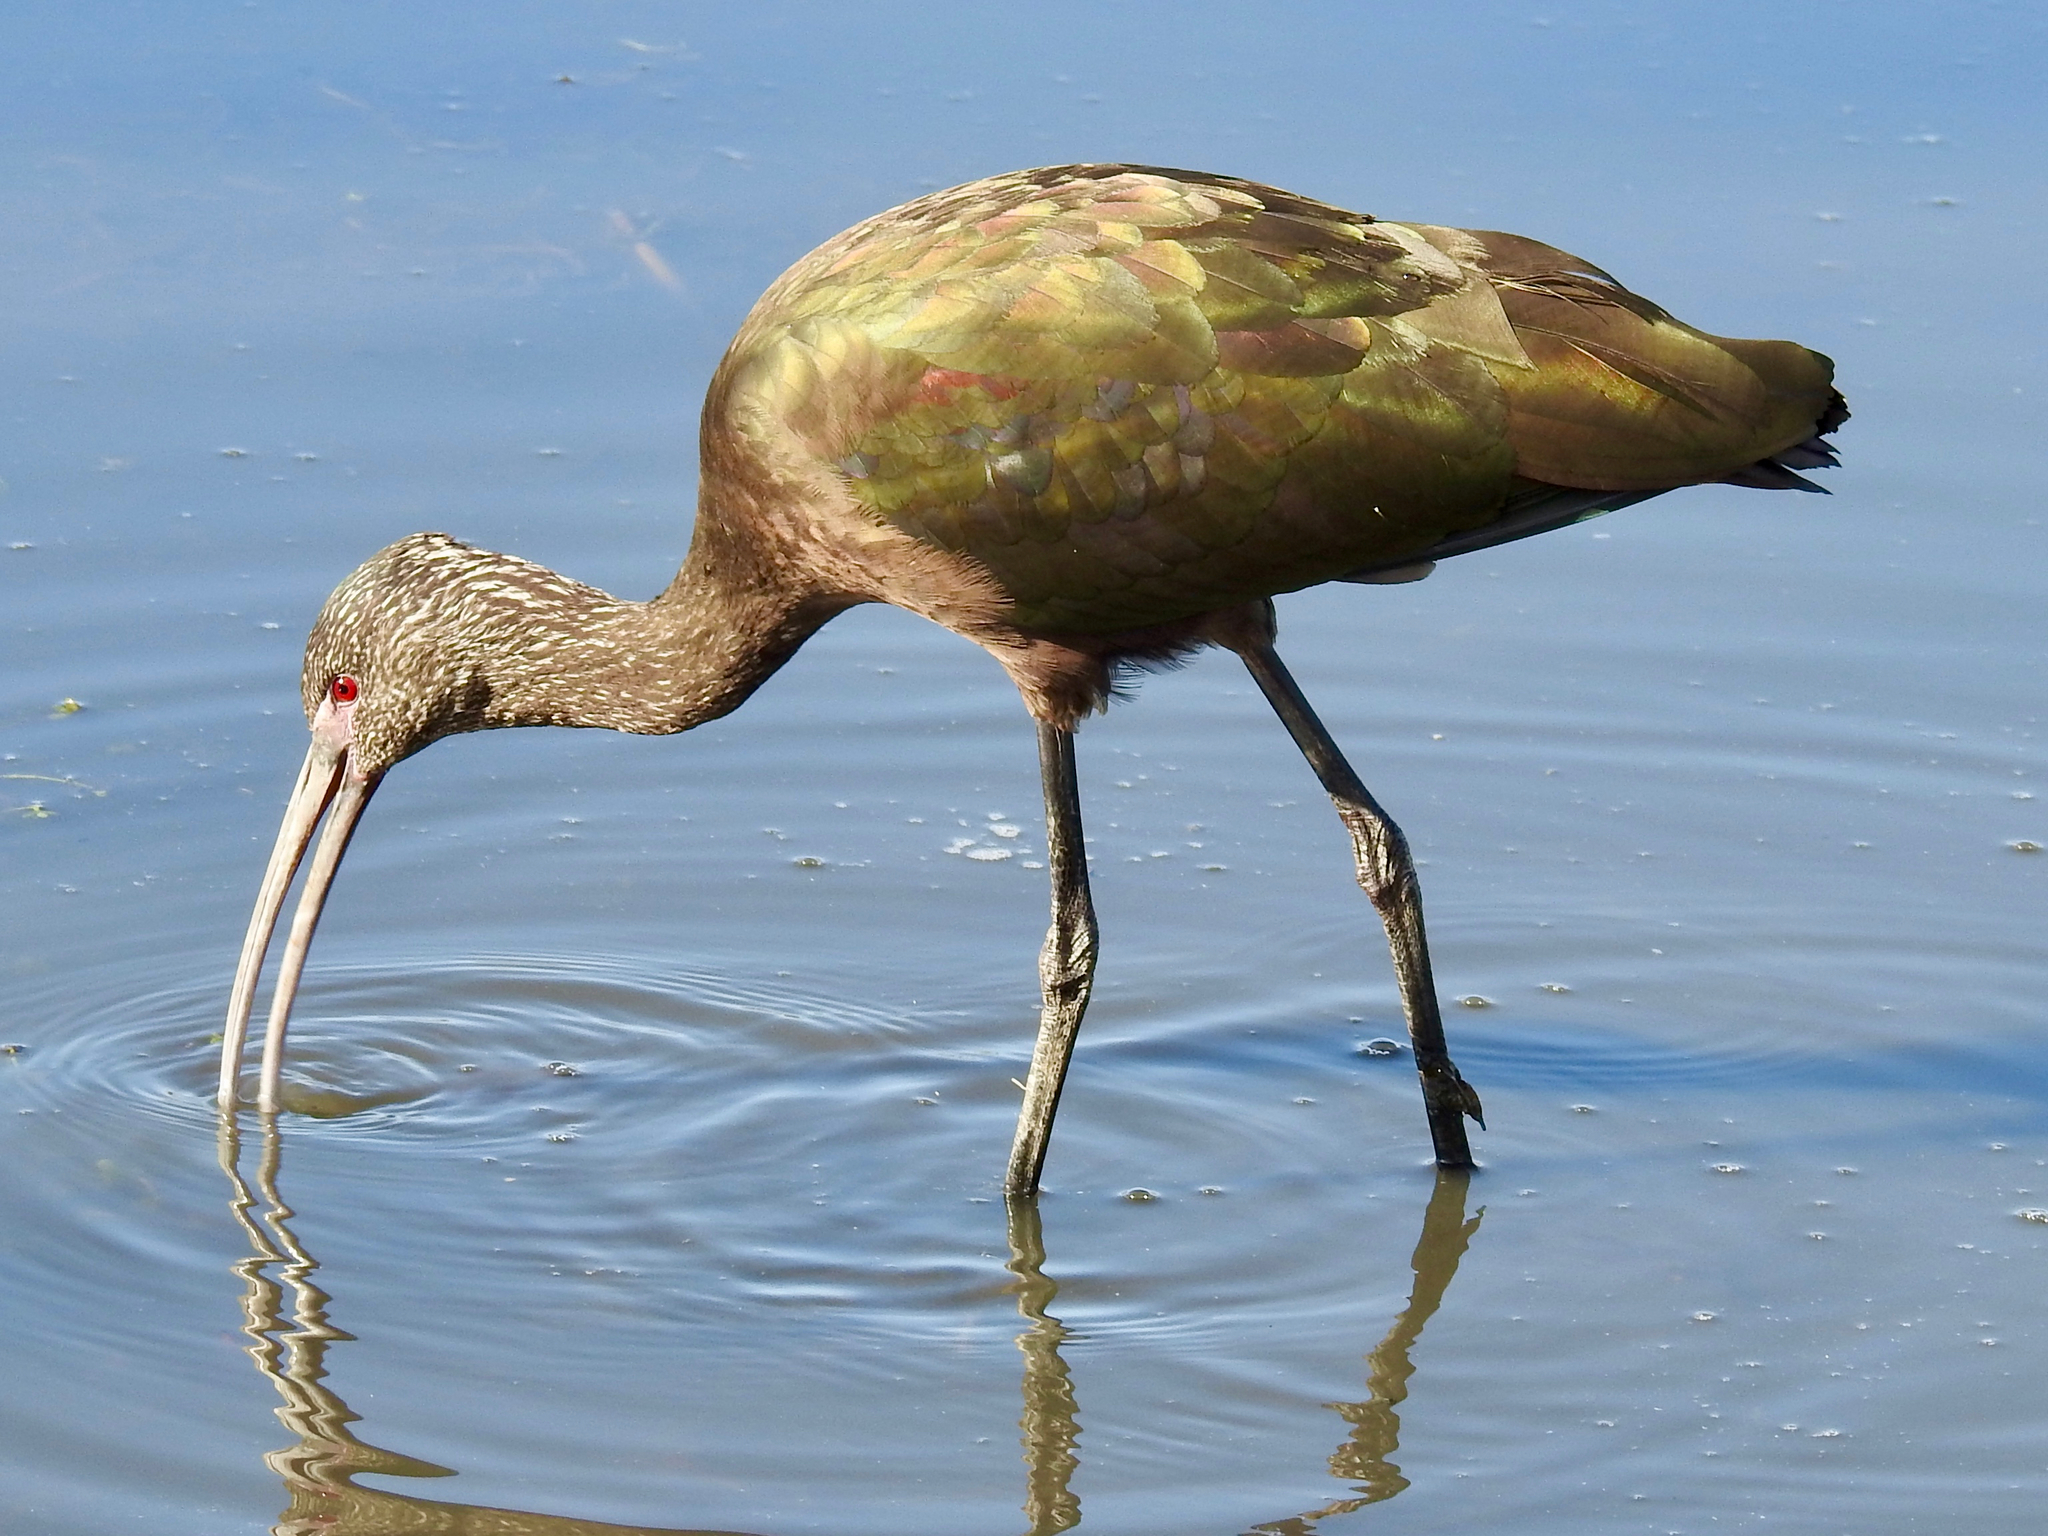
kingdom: Animalia
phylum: Chordata
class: Aves
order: Pelecaniformes
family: Threskiornithidae
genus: Plegadis
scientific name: Plegadis chihi
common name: White-faced ibis
